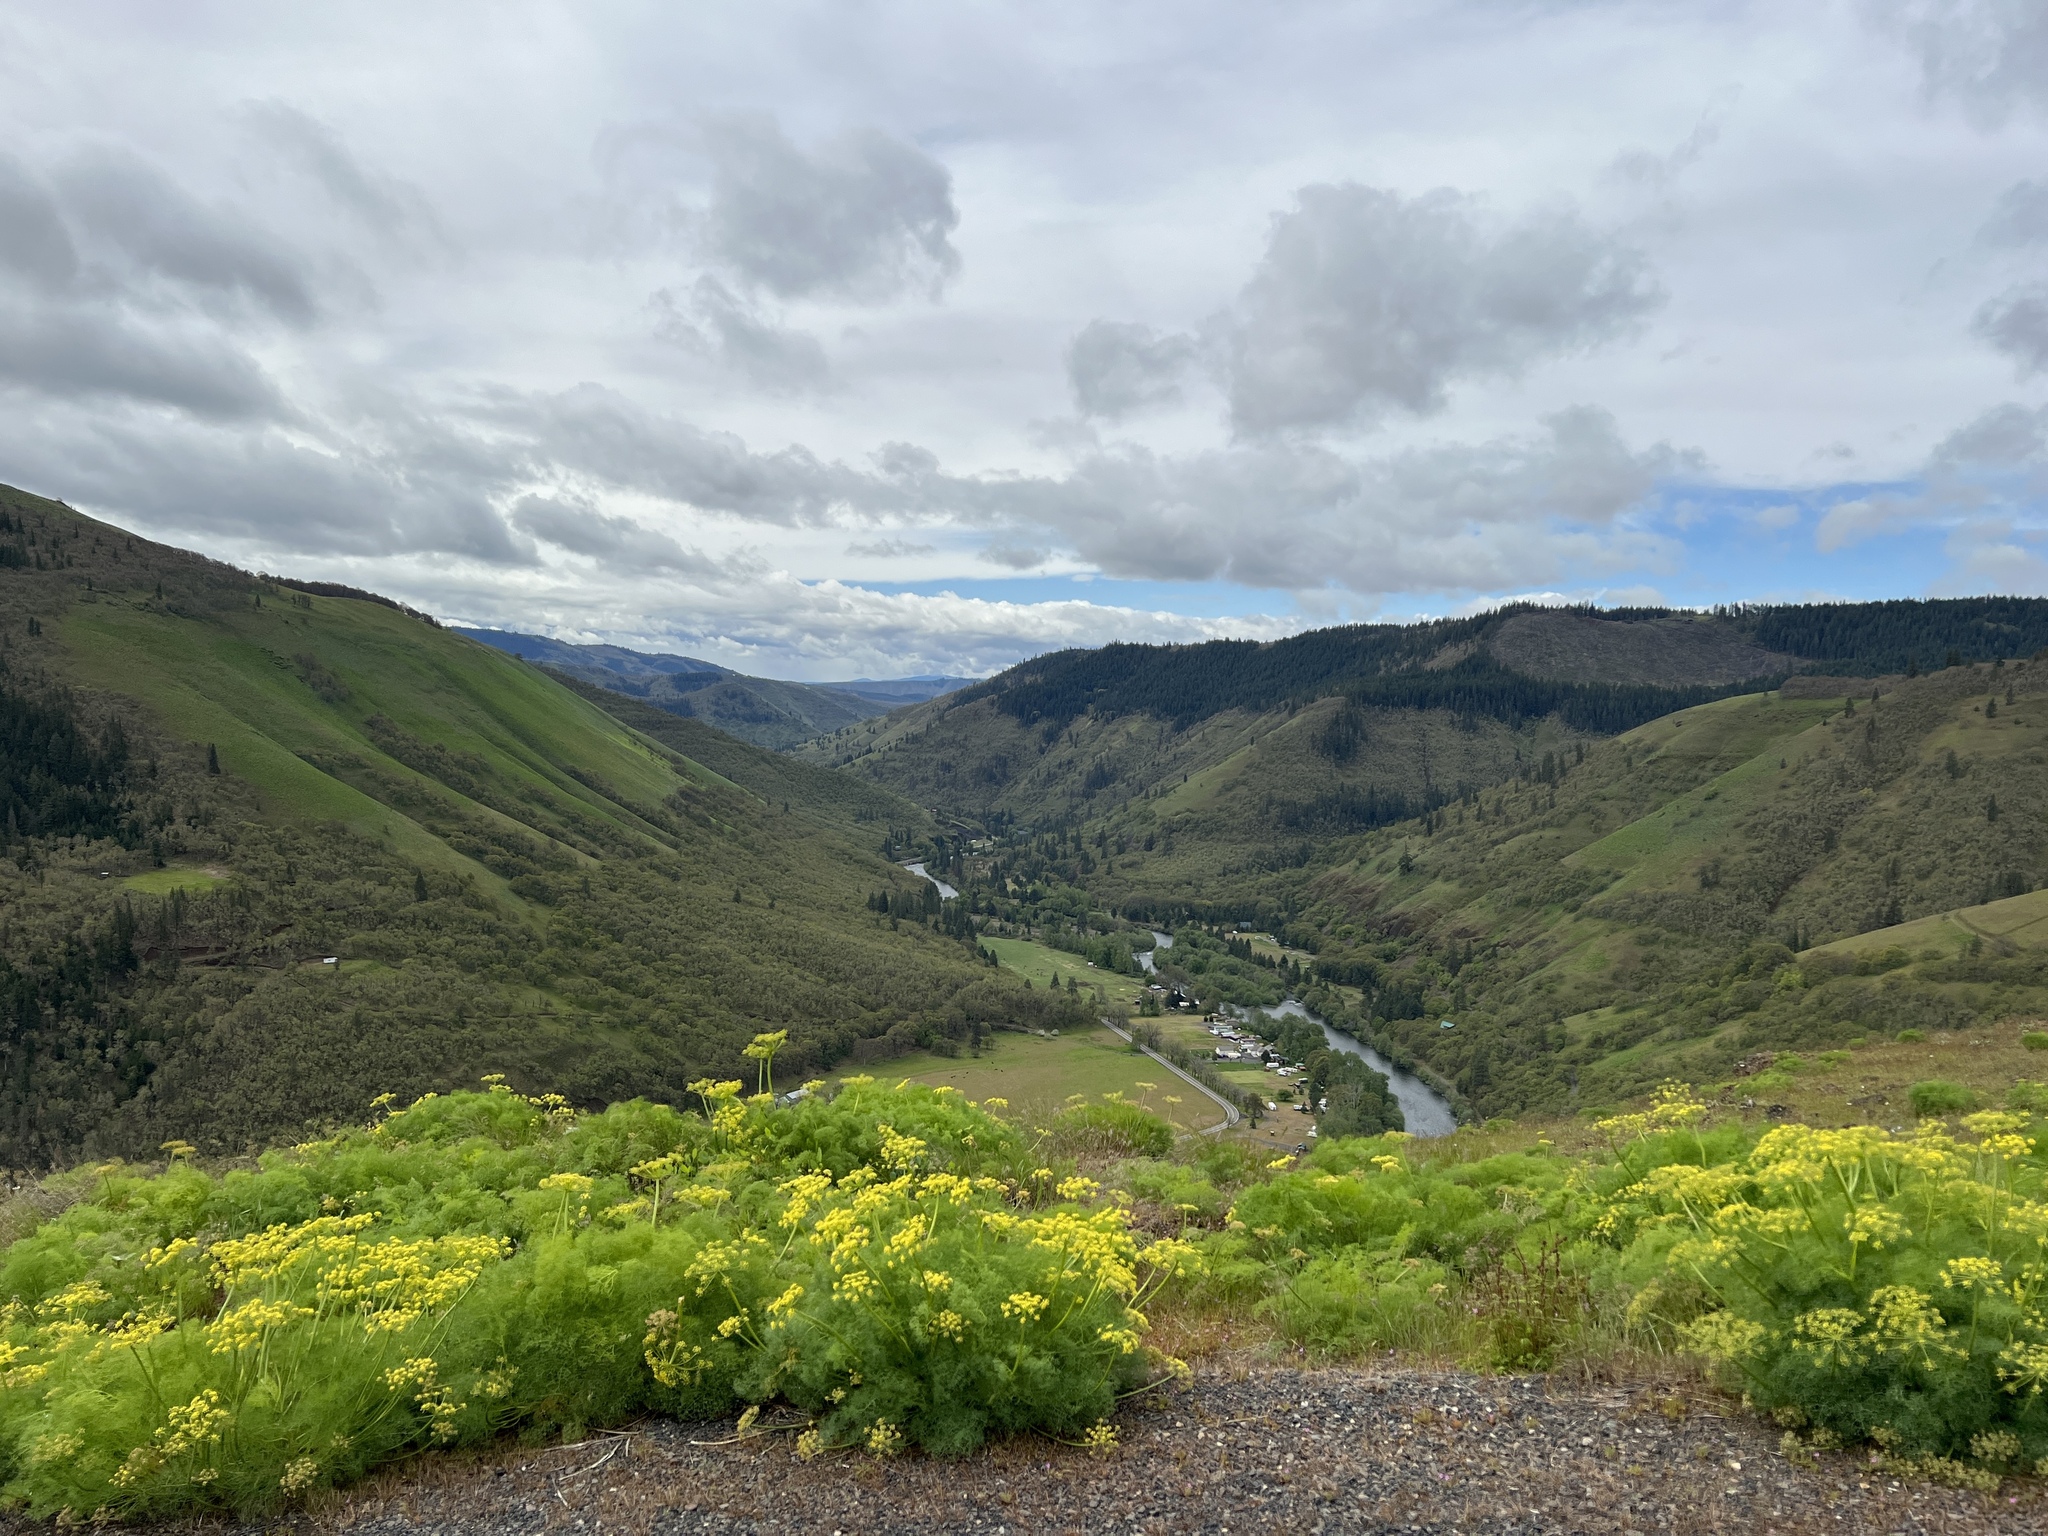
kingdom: Plantae
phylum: Tracheophyta
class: Magnoliopsida
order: Apiales
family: Apiaceae
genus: Lomatium
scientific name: Lomatium klickitatense
